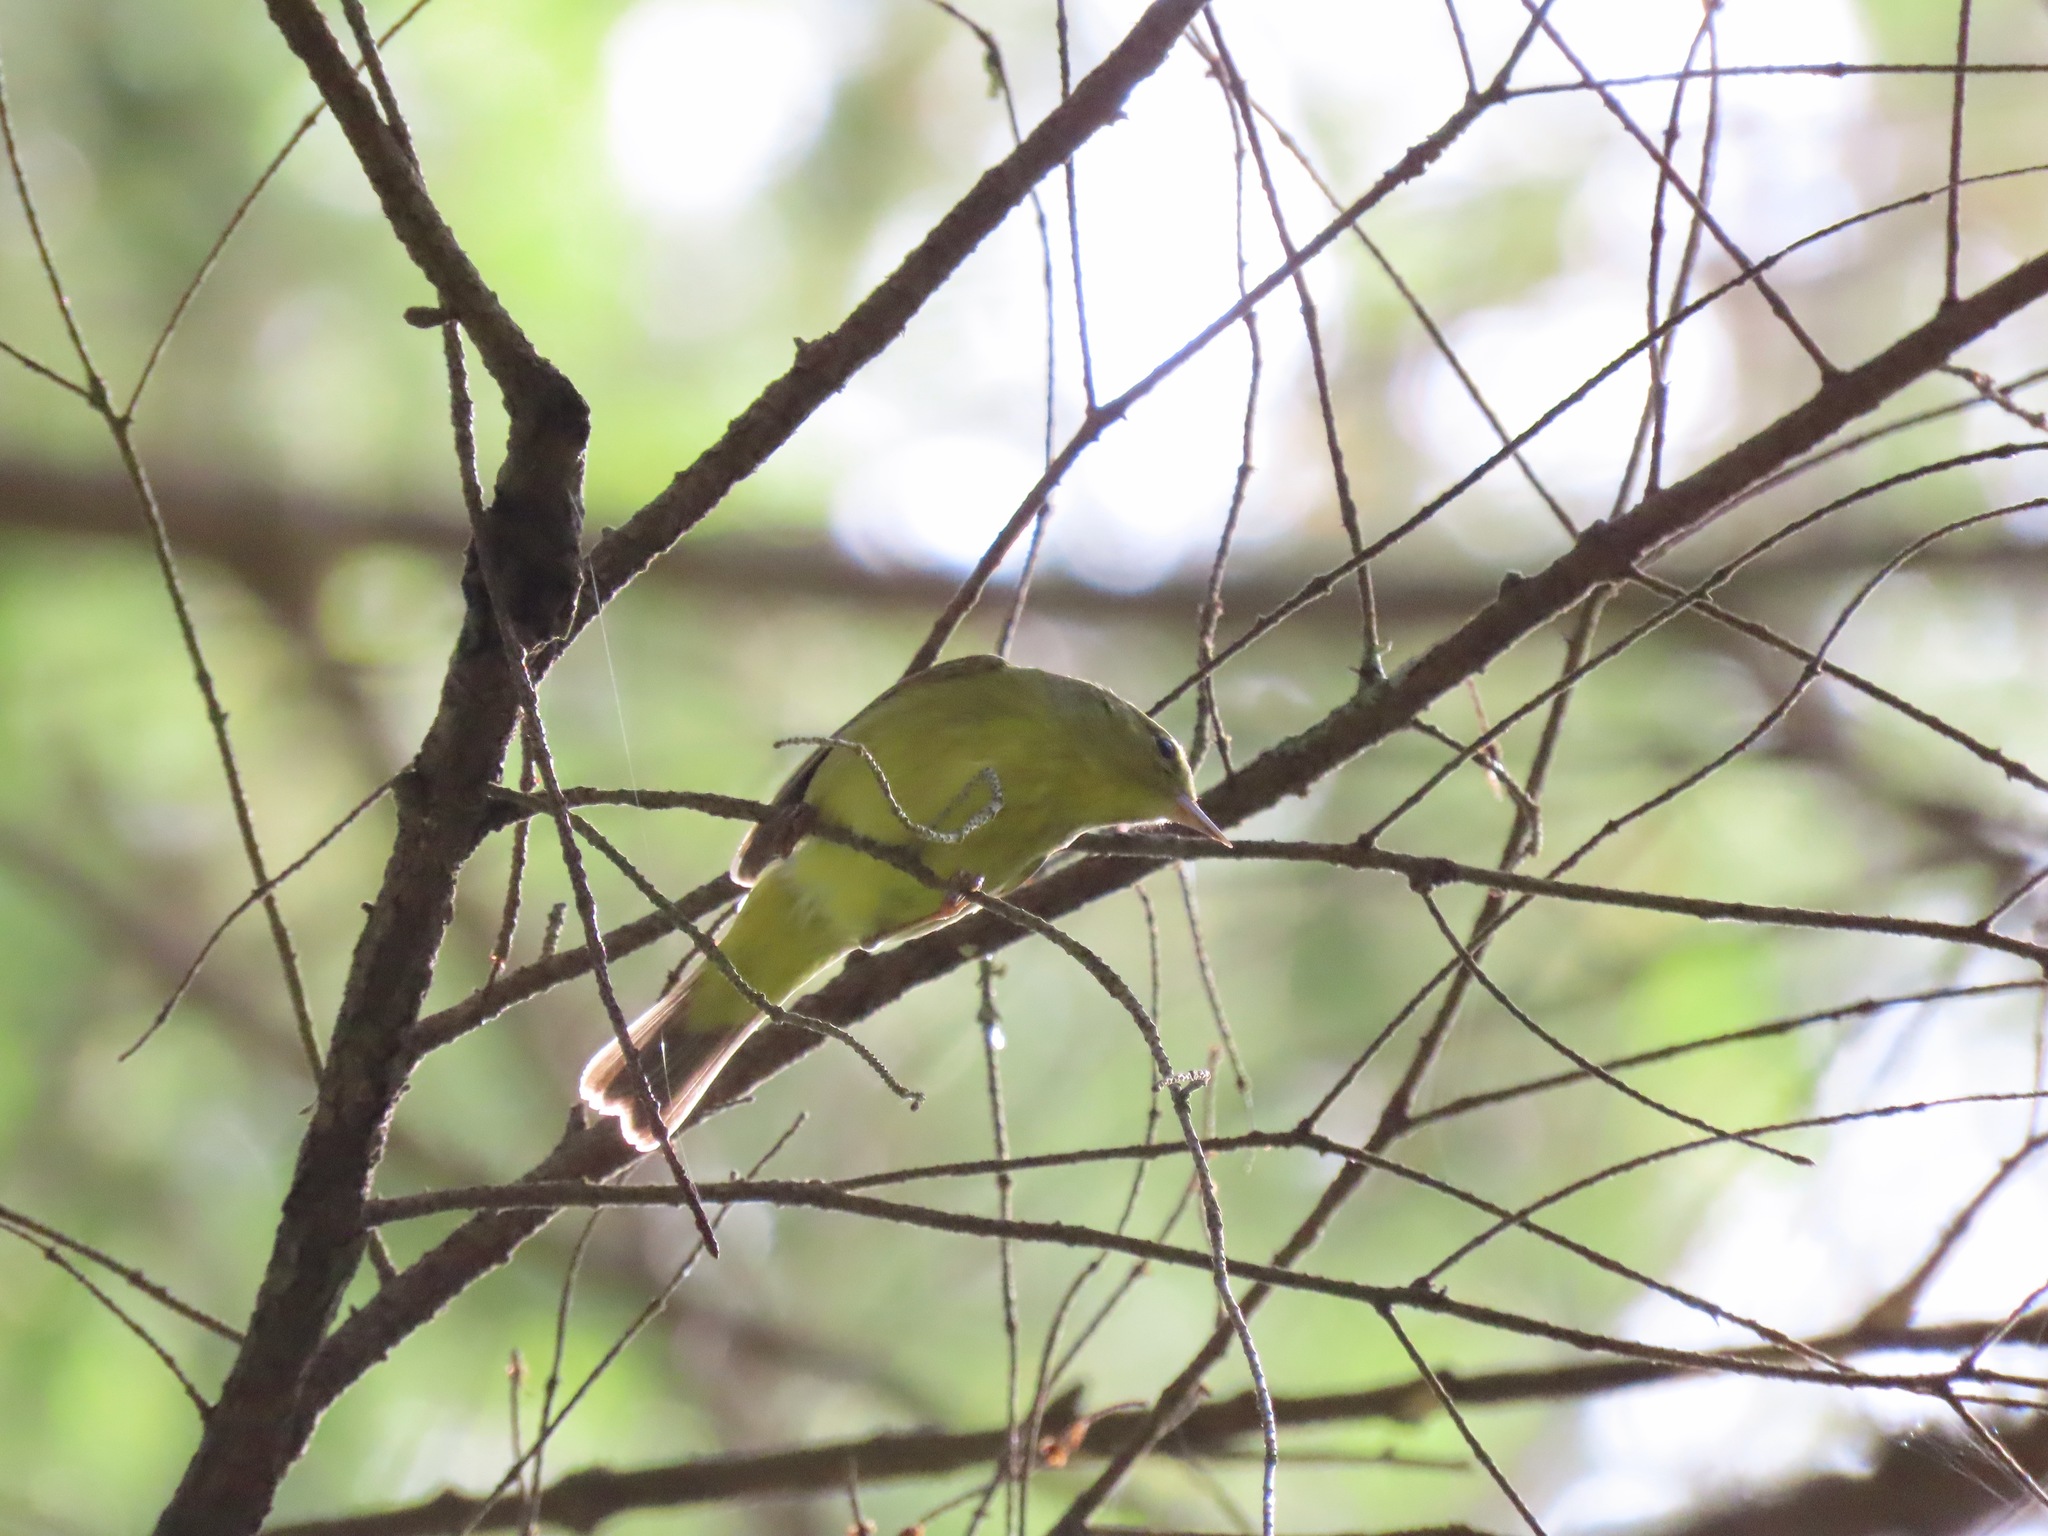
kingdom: Animalia
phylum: Chordata
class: Aves
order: Passeriformes
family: Parulidae
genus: Leiothlypis
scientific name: Leiothlypis celata
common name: Orange-crowned warbler
